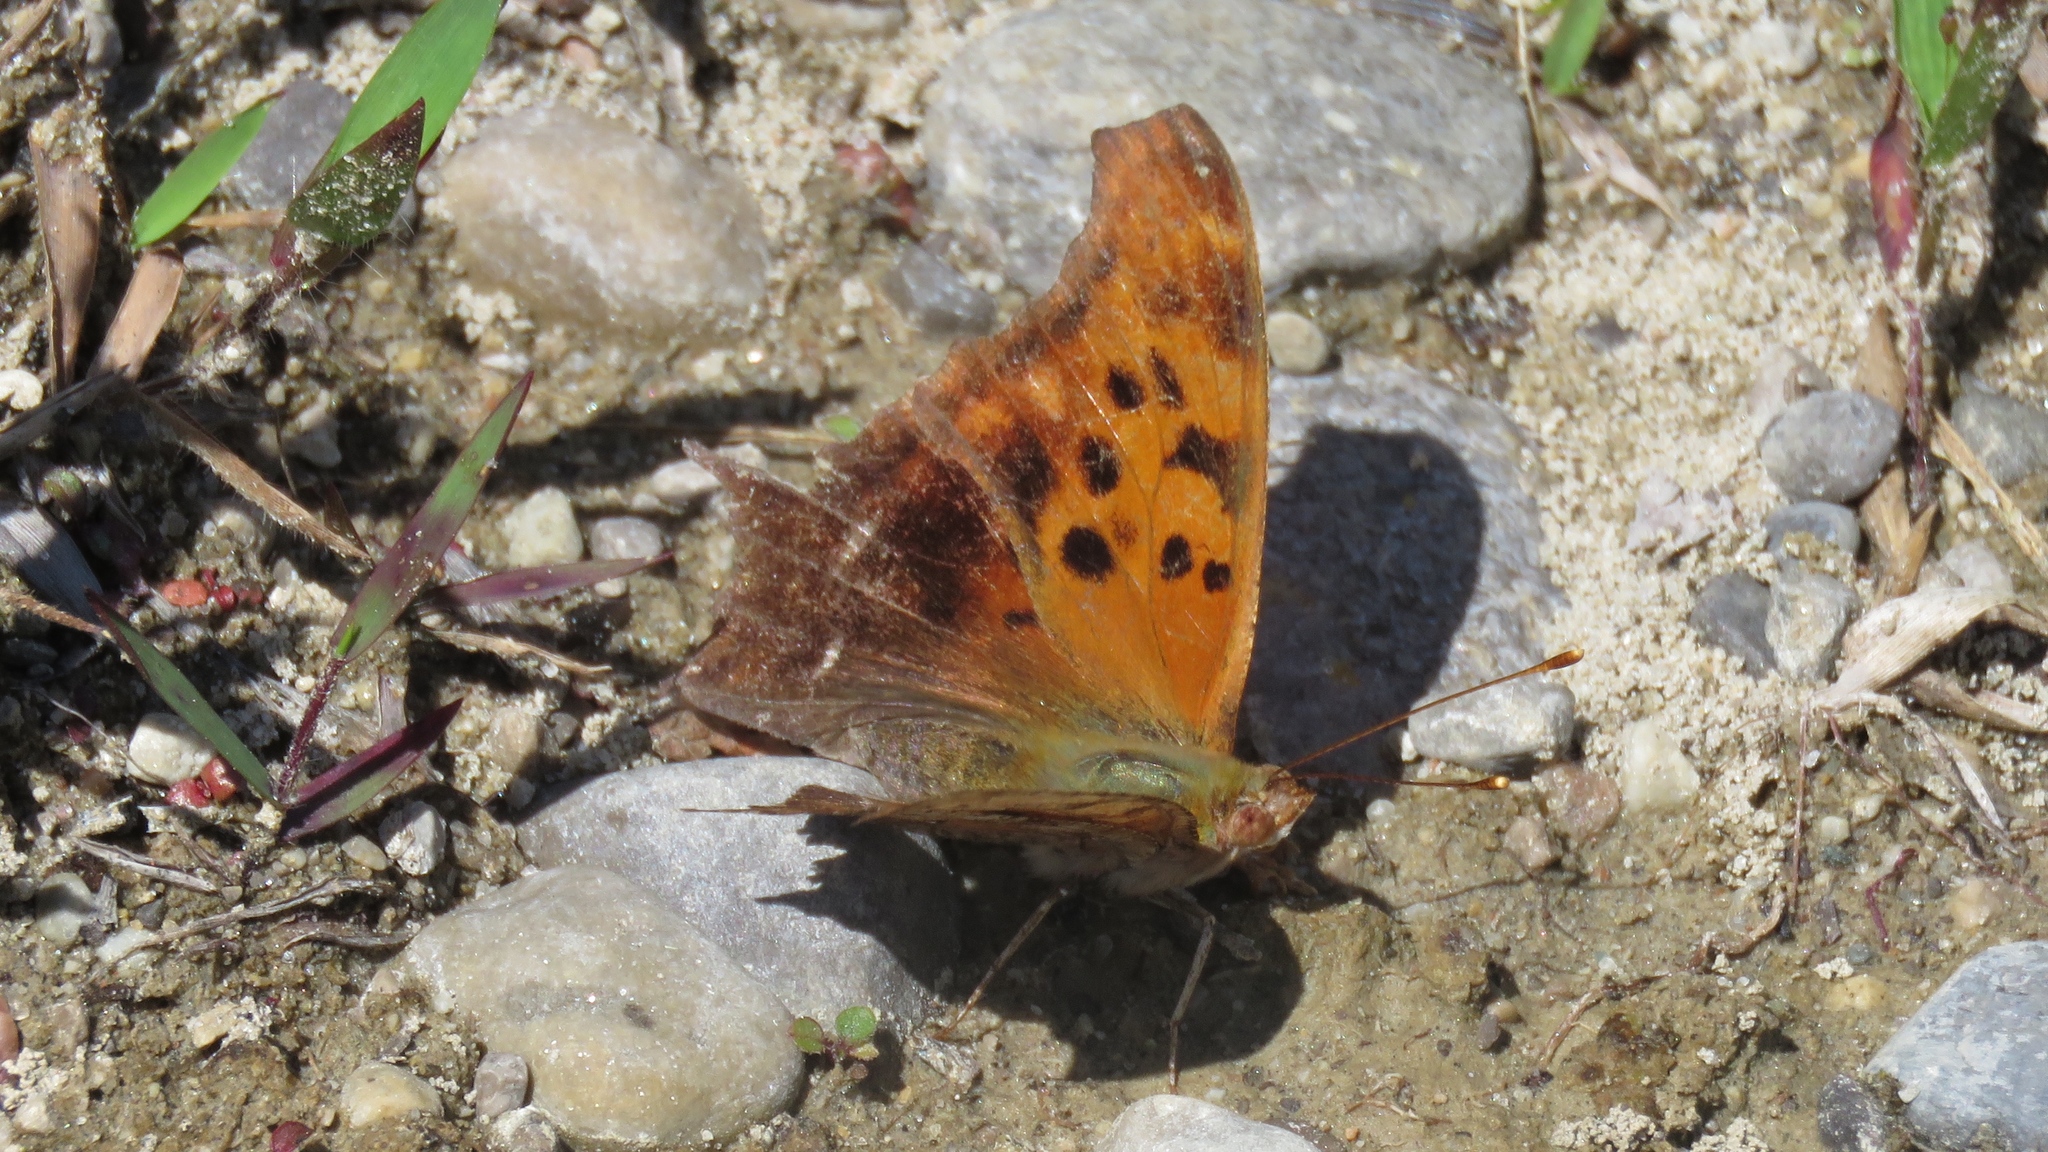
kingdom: Animalia
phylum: Arthropoda
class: Insecta
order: Lepidoptera
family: Nymphalidae
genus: Polygonia
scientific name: Polygonia interrogationis
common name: Question mark
